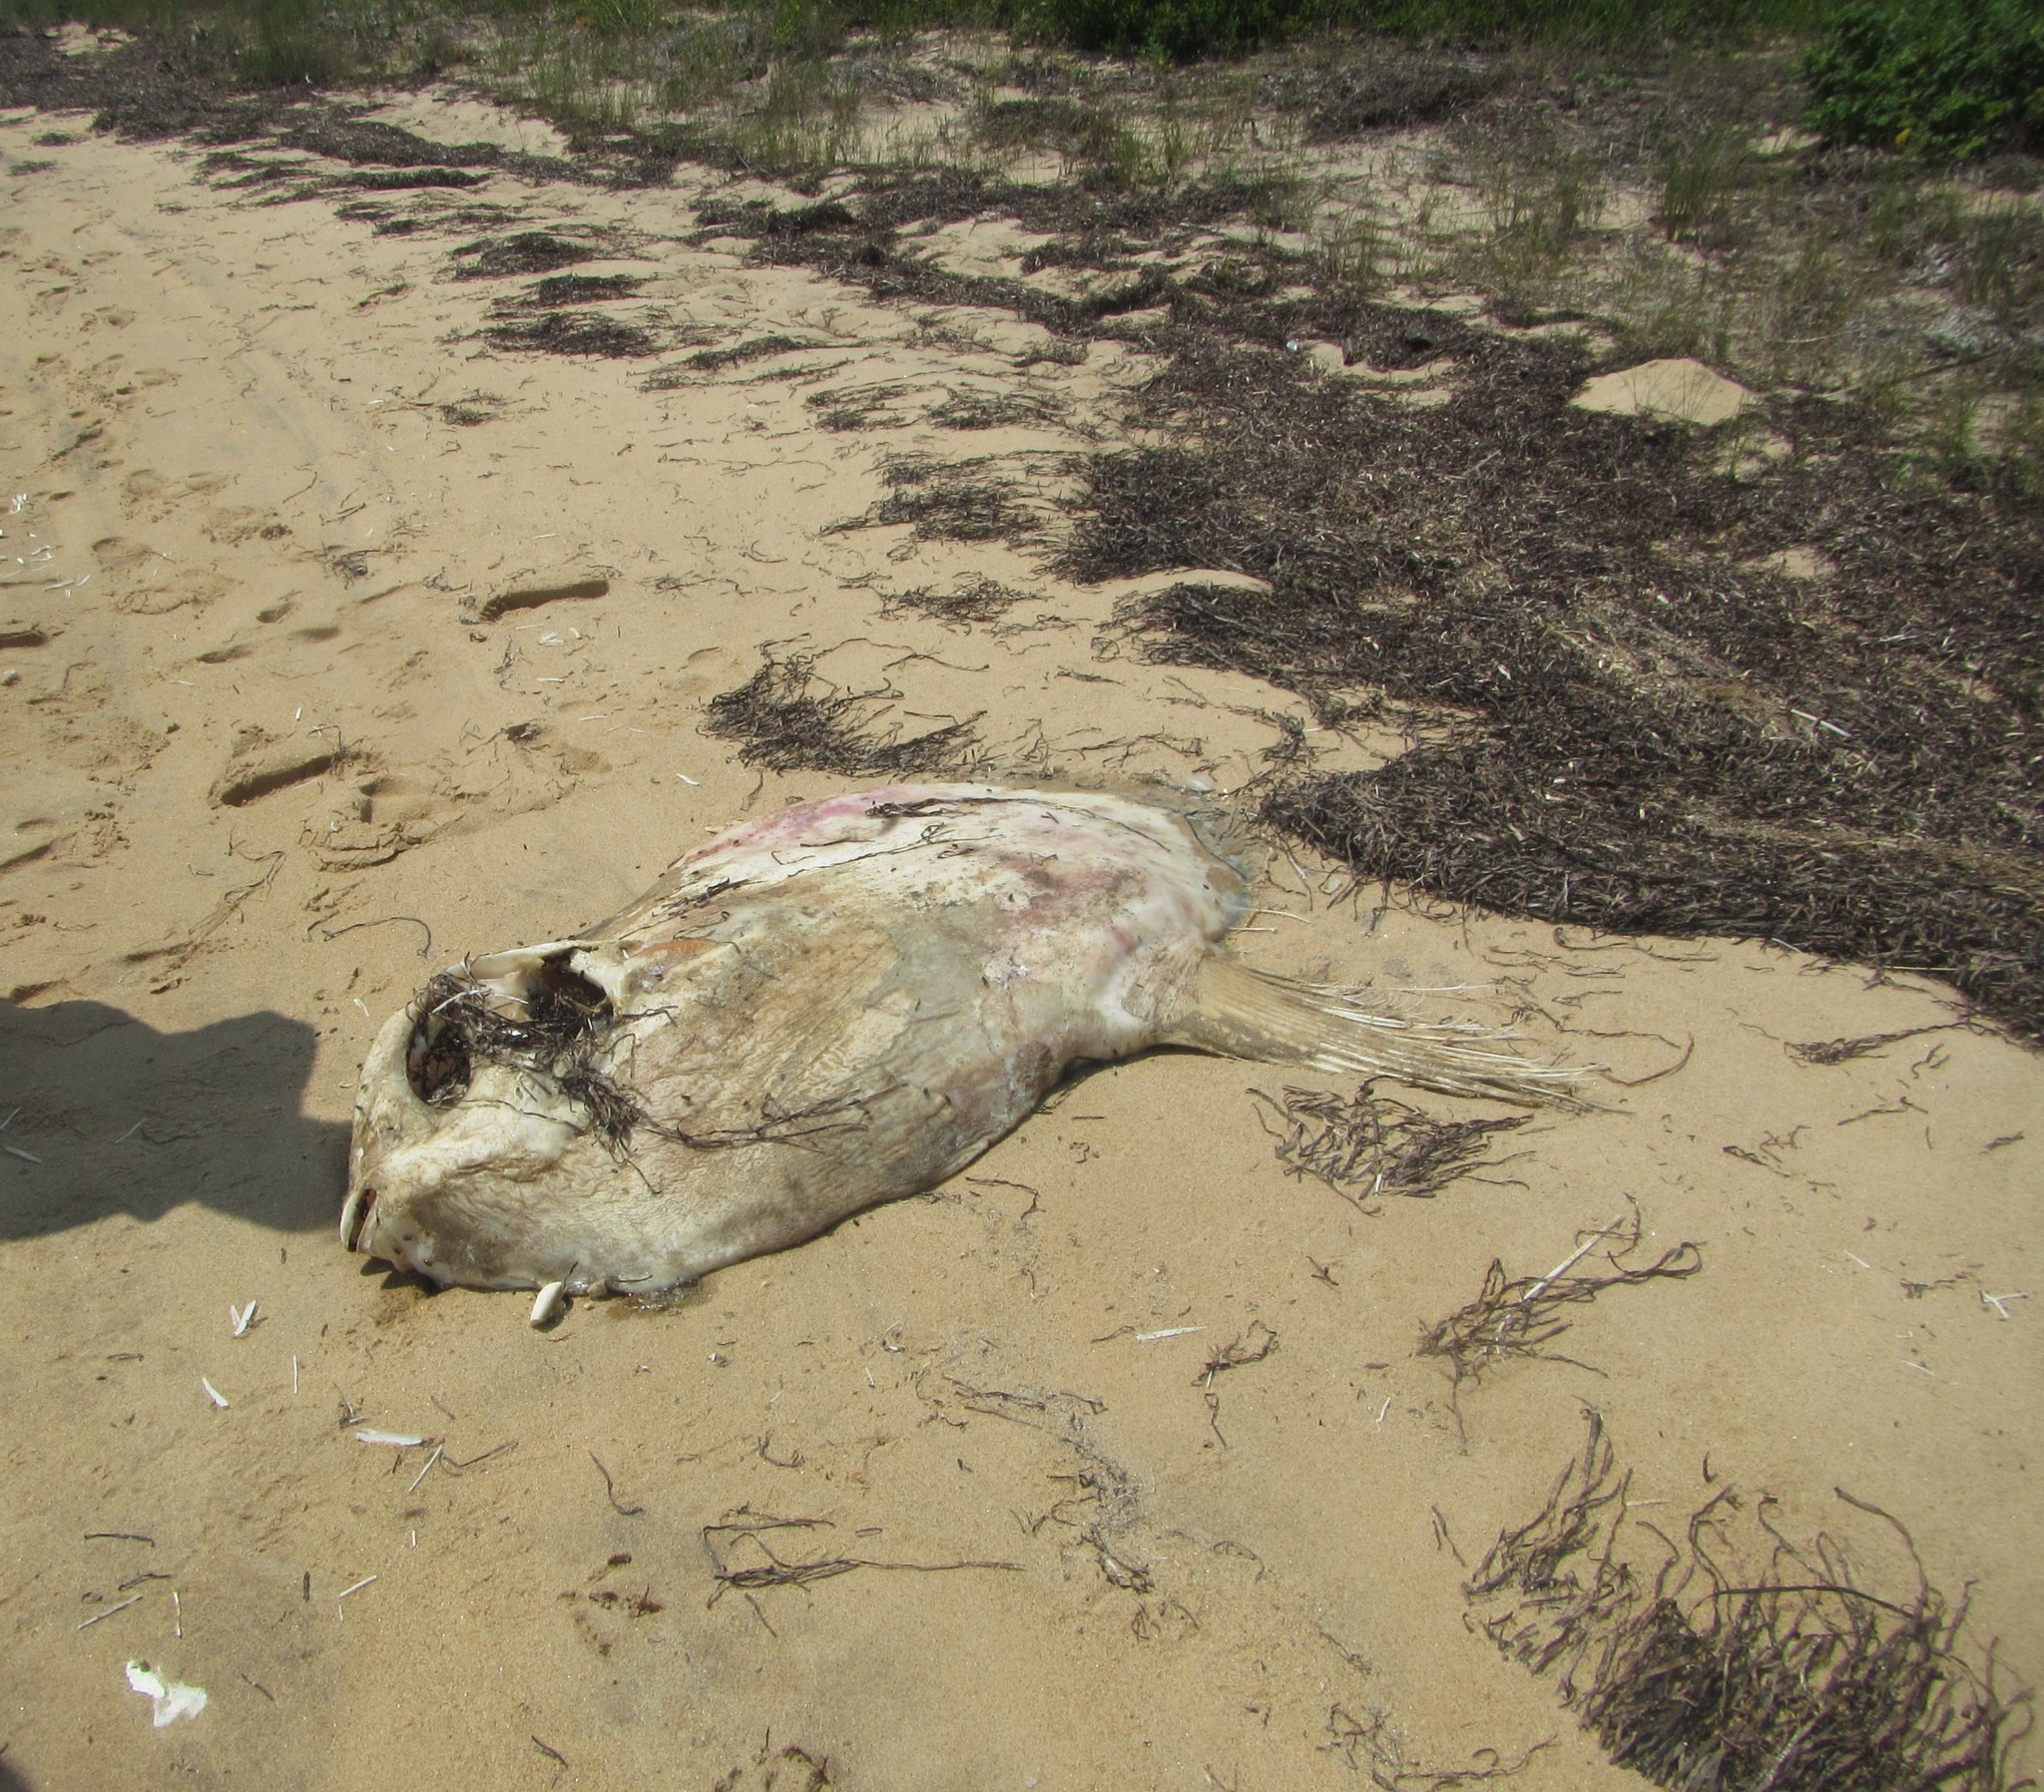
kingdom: Animalia
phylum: Chordata
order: Tetraodontiformes
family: Molidae
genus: Mola
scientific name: Mola mola
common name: Ocean sunfish
